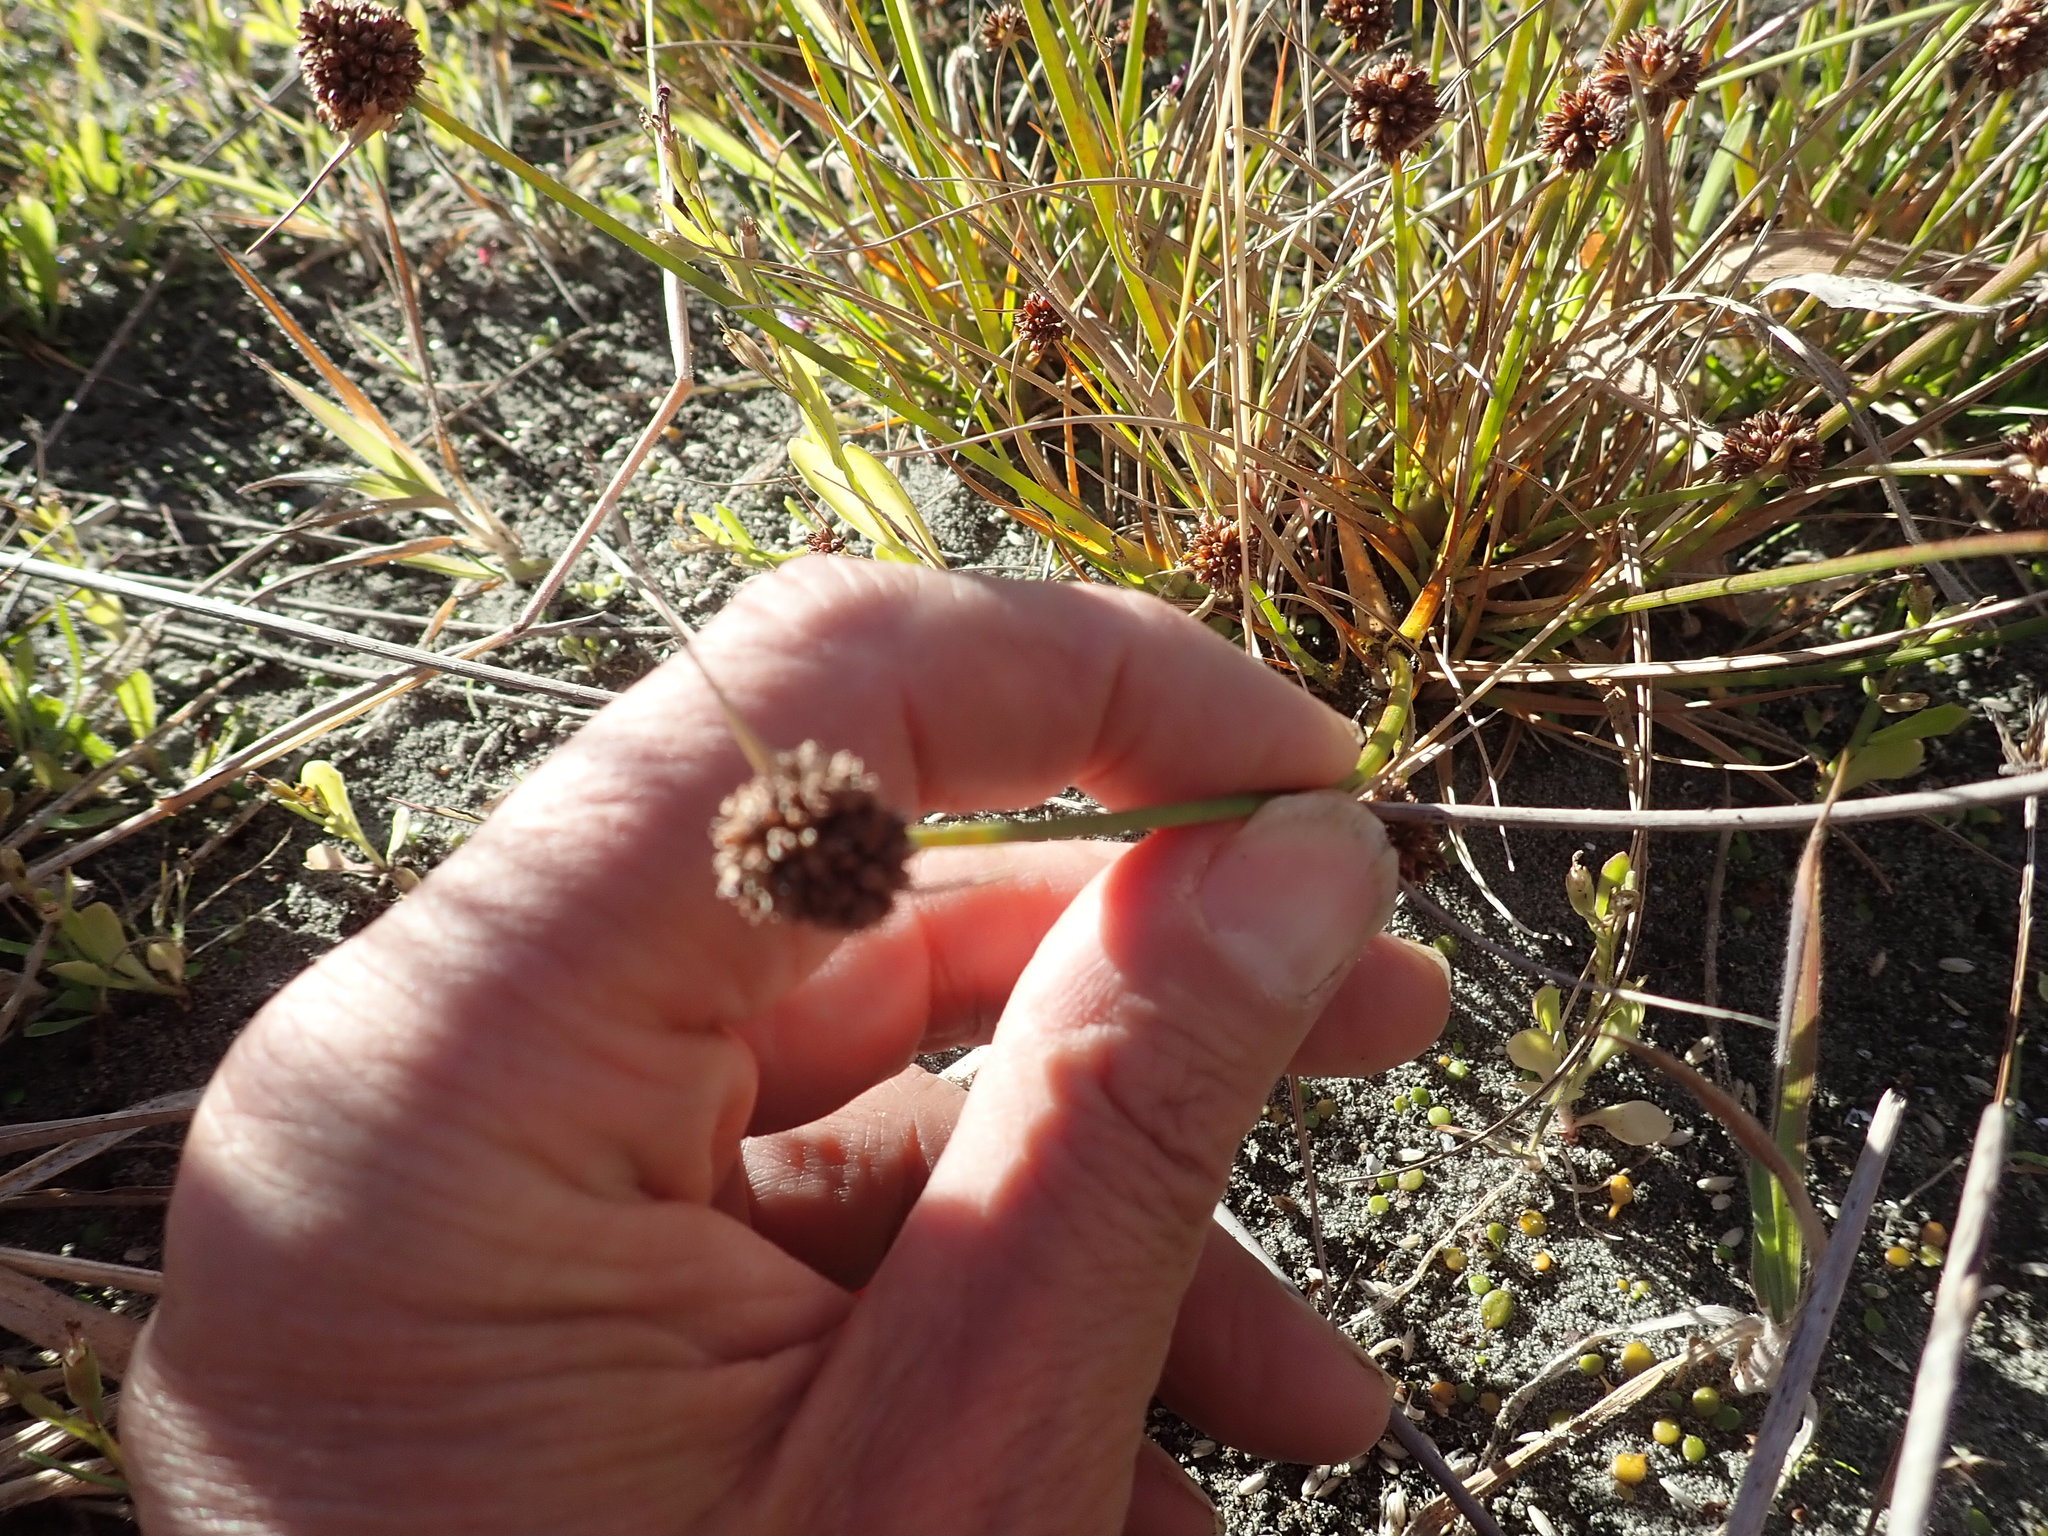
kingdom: Plantae
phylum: Tracheophyta
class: Liliopsida
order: Poales
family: Juncaceae
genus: Juncus
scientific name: Juncus caespiticius
